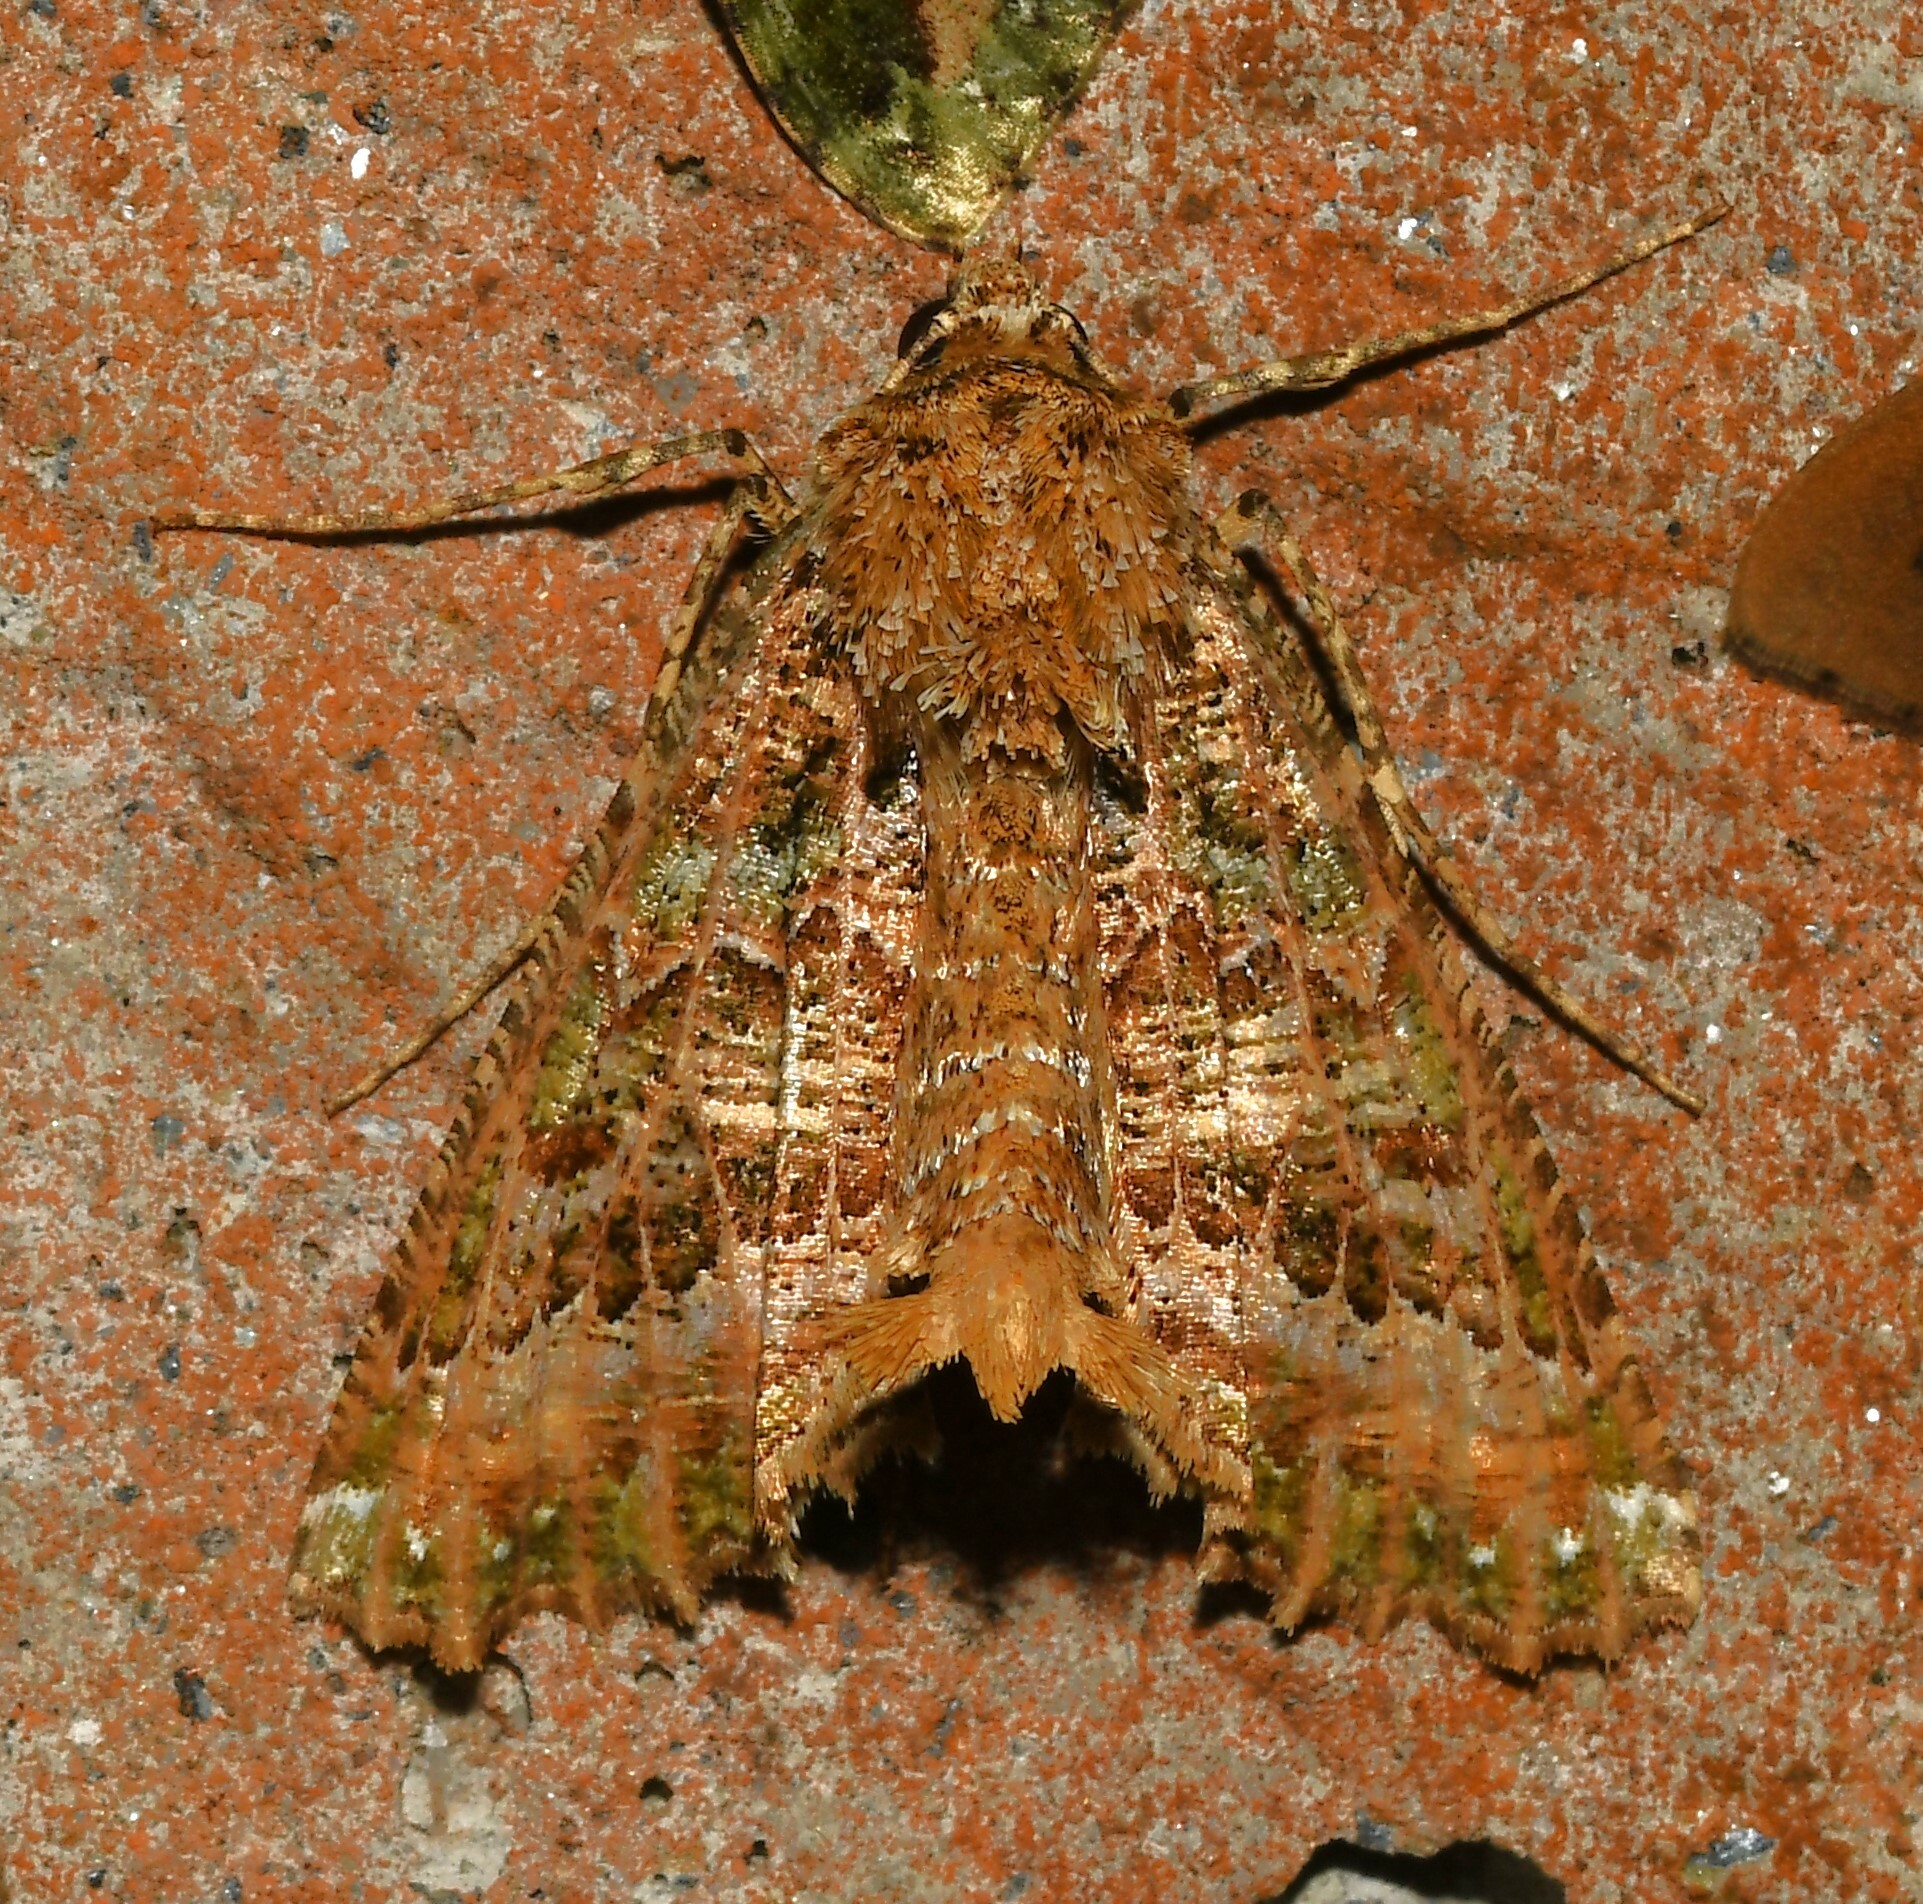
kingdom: Animalia
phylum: Arthropoda
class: Insecta
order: Lepidoptera
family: Geometridae
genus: Aragua
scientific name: Aragua bistonaria
